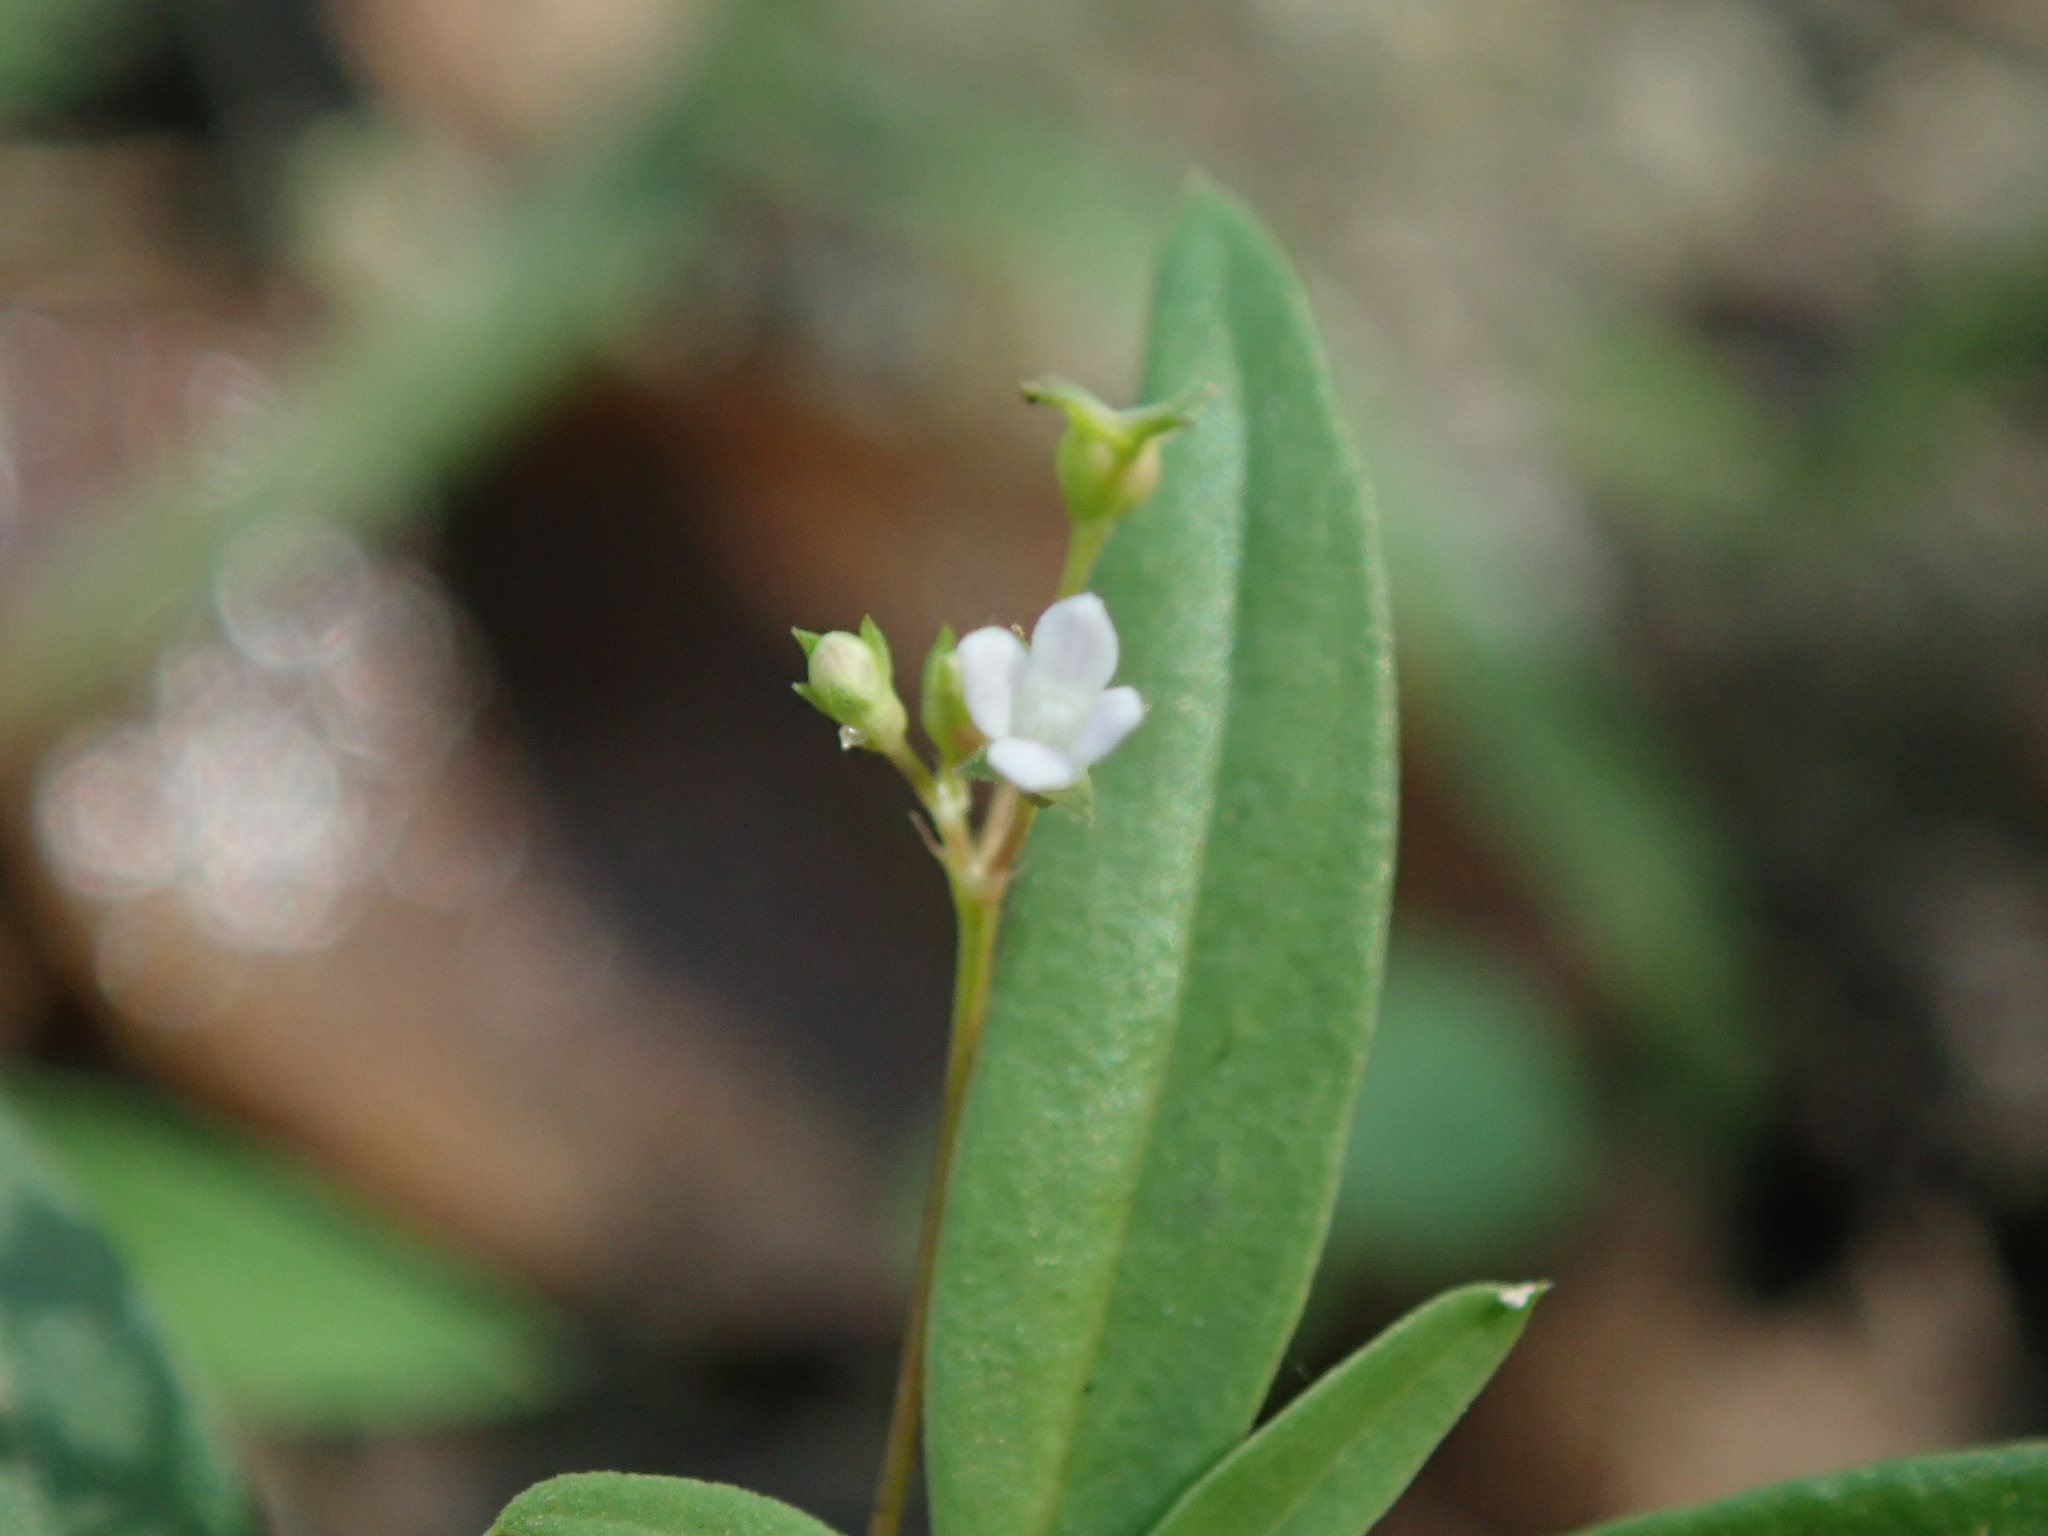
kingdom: Plantae
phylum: Tracheophyta
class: Magnoliopsida
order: Gentianales
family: Rubiaceae
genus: Oldenlandia
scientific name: Oldenlandia corymbosa
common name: Flat-top mille graines
